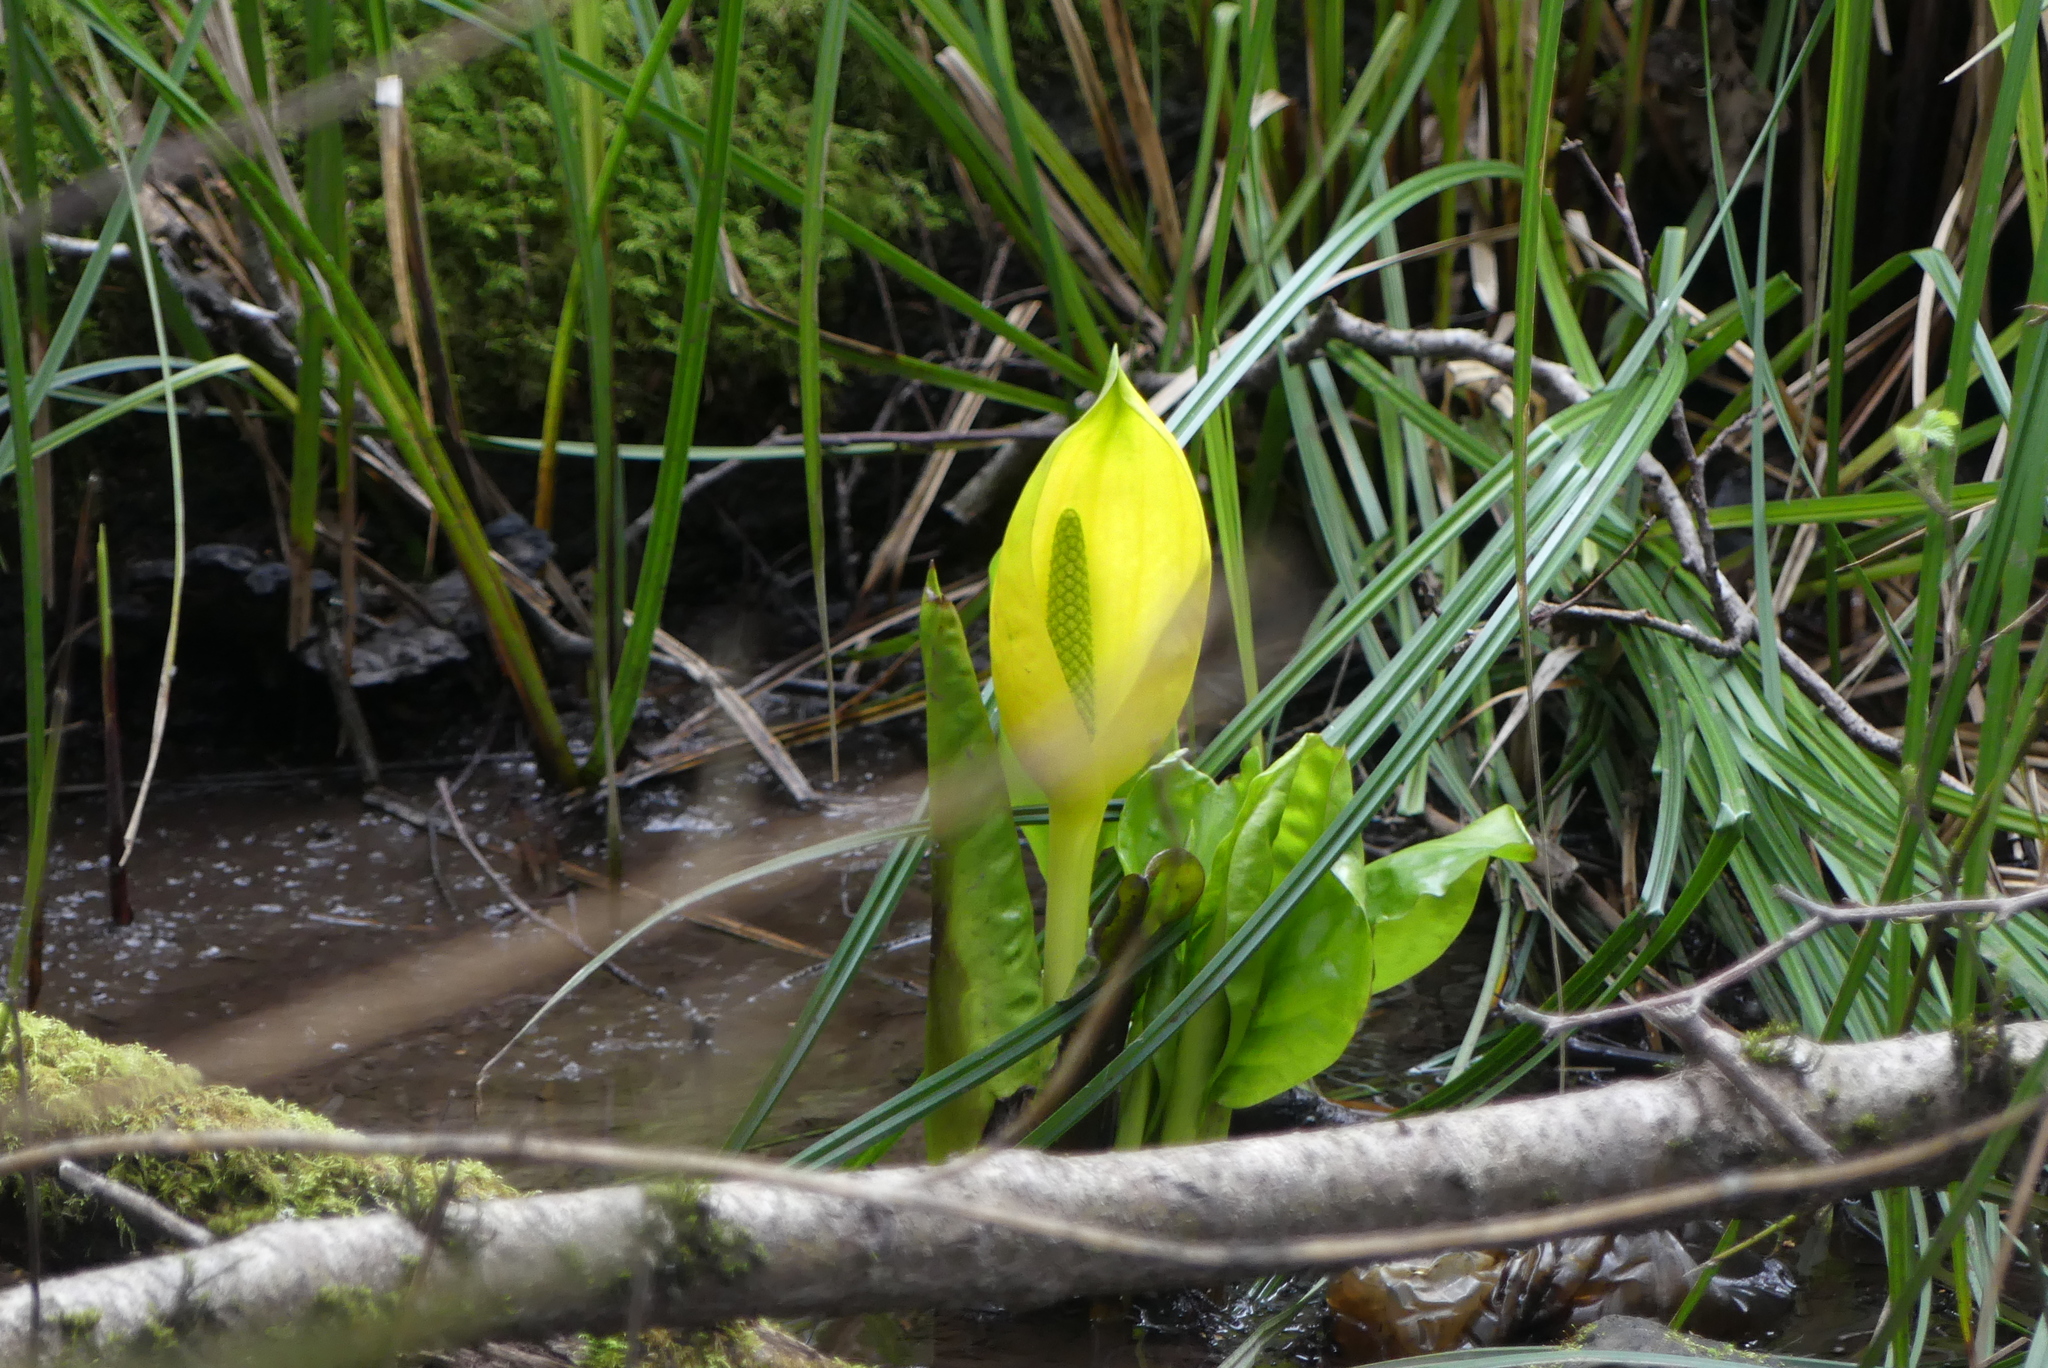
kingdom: Plantae
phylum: Tracheophyta
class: Liliopsida
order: Alismatales
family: Araceae
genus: Lysichiton
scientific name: Lysichiton americanus
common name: American skunk cabbage
